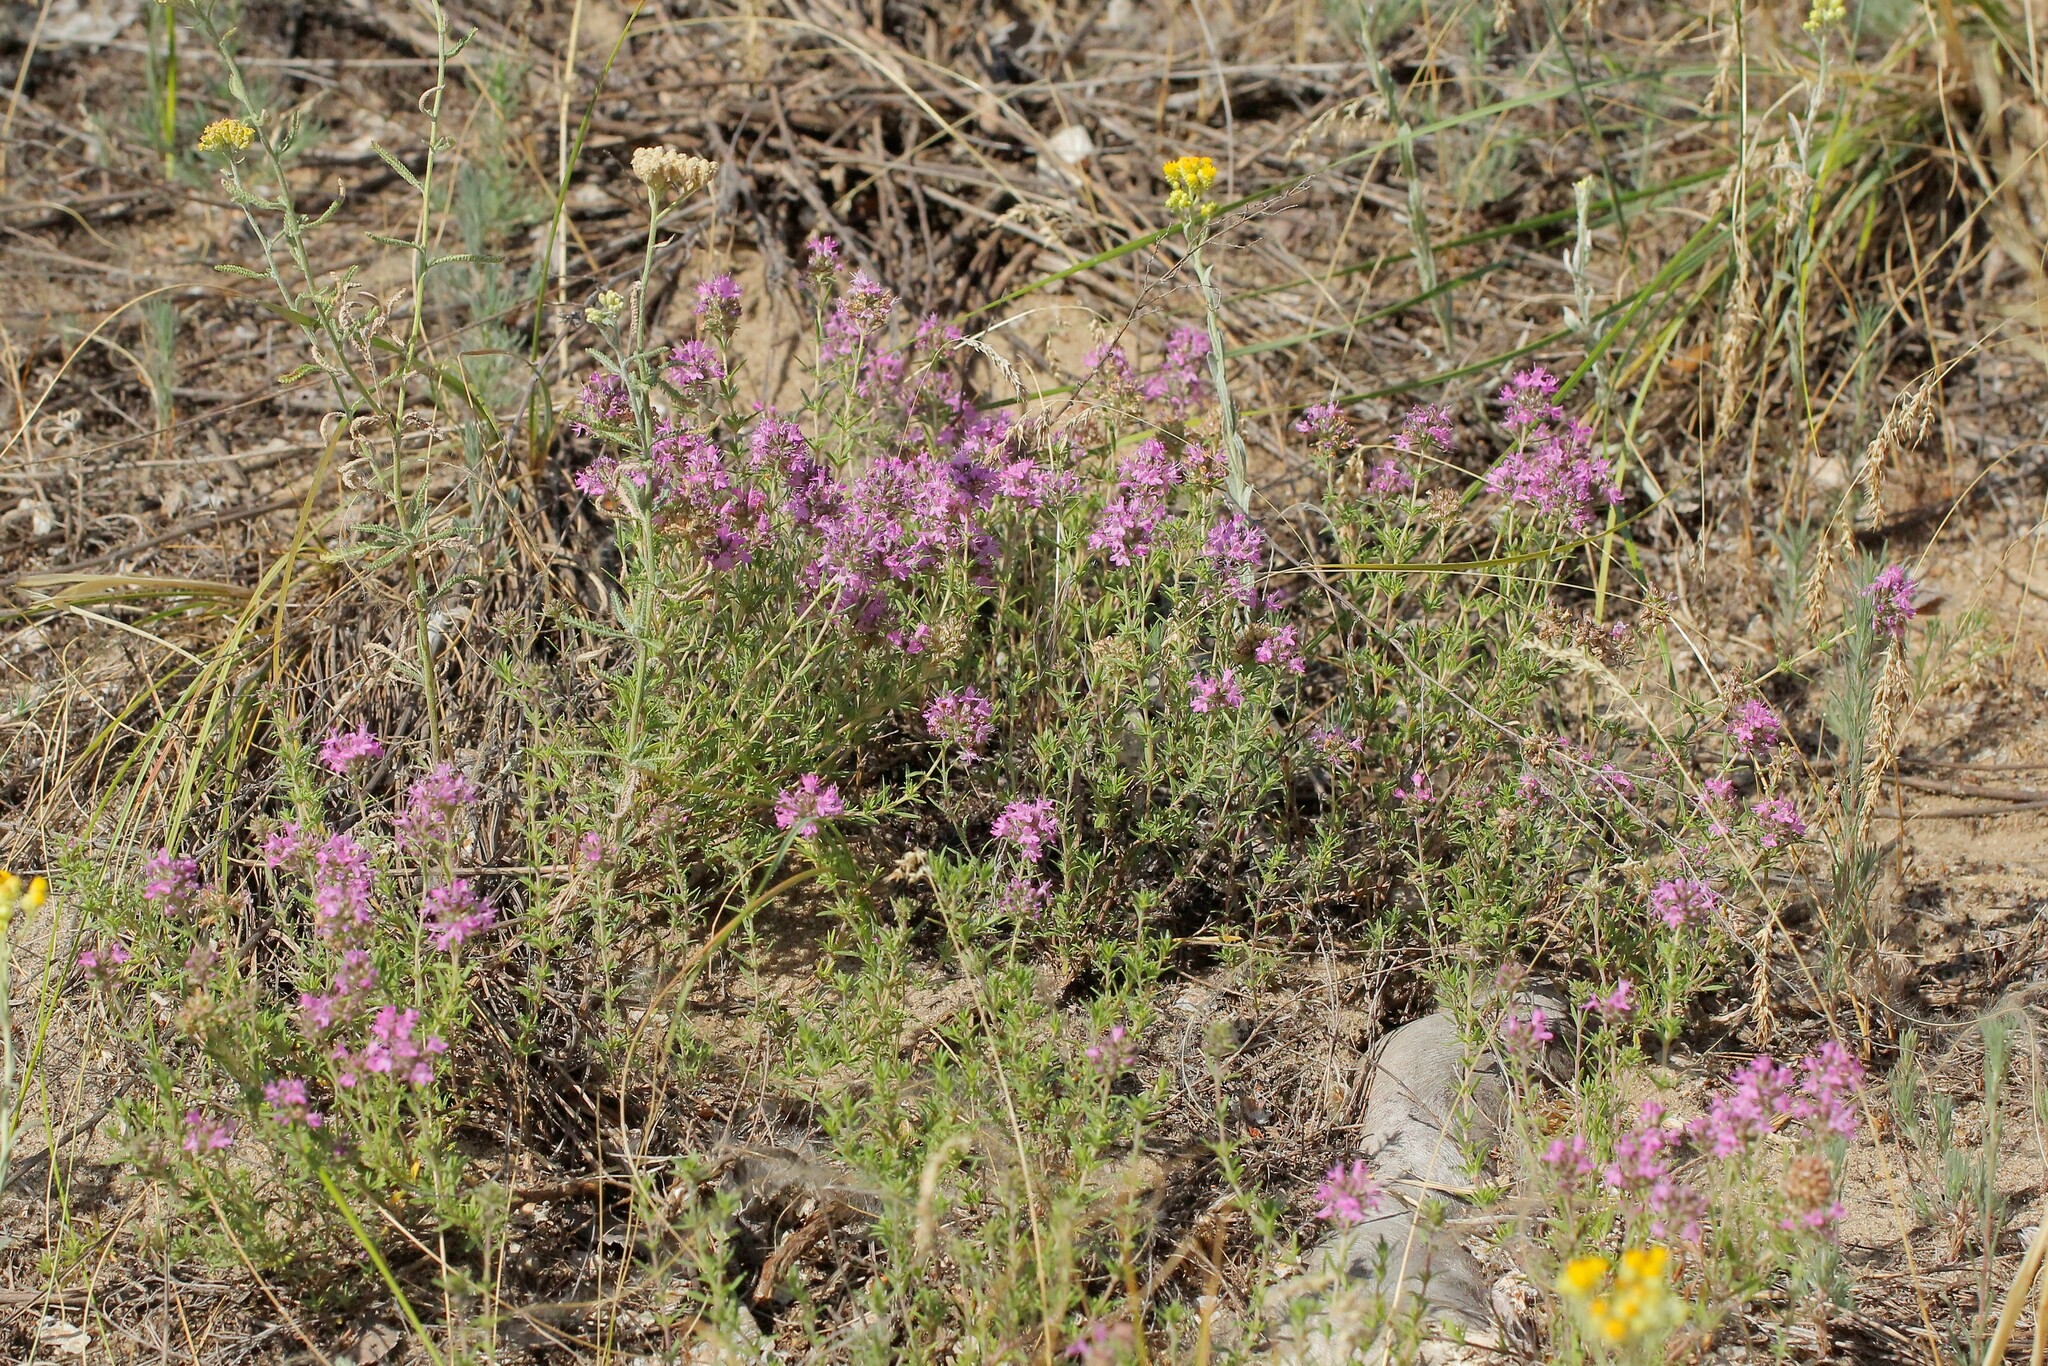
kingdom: Plantae
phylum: Tracheophyta
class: Magnoliopsida
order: Lamiales
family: Lamiaceae
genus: Thymus
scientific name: Thymus pallasianus
